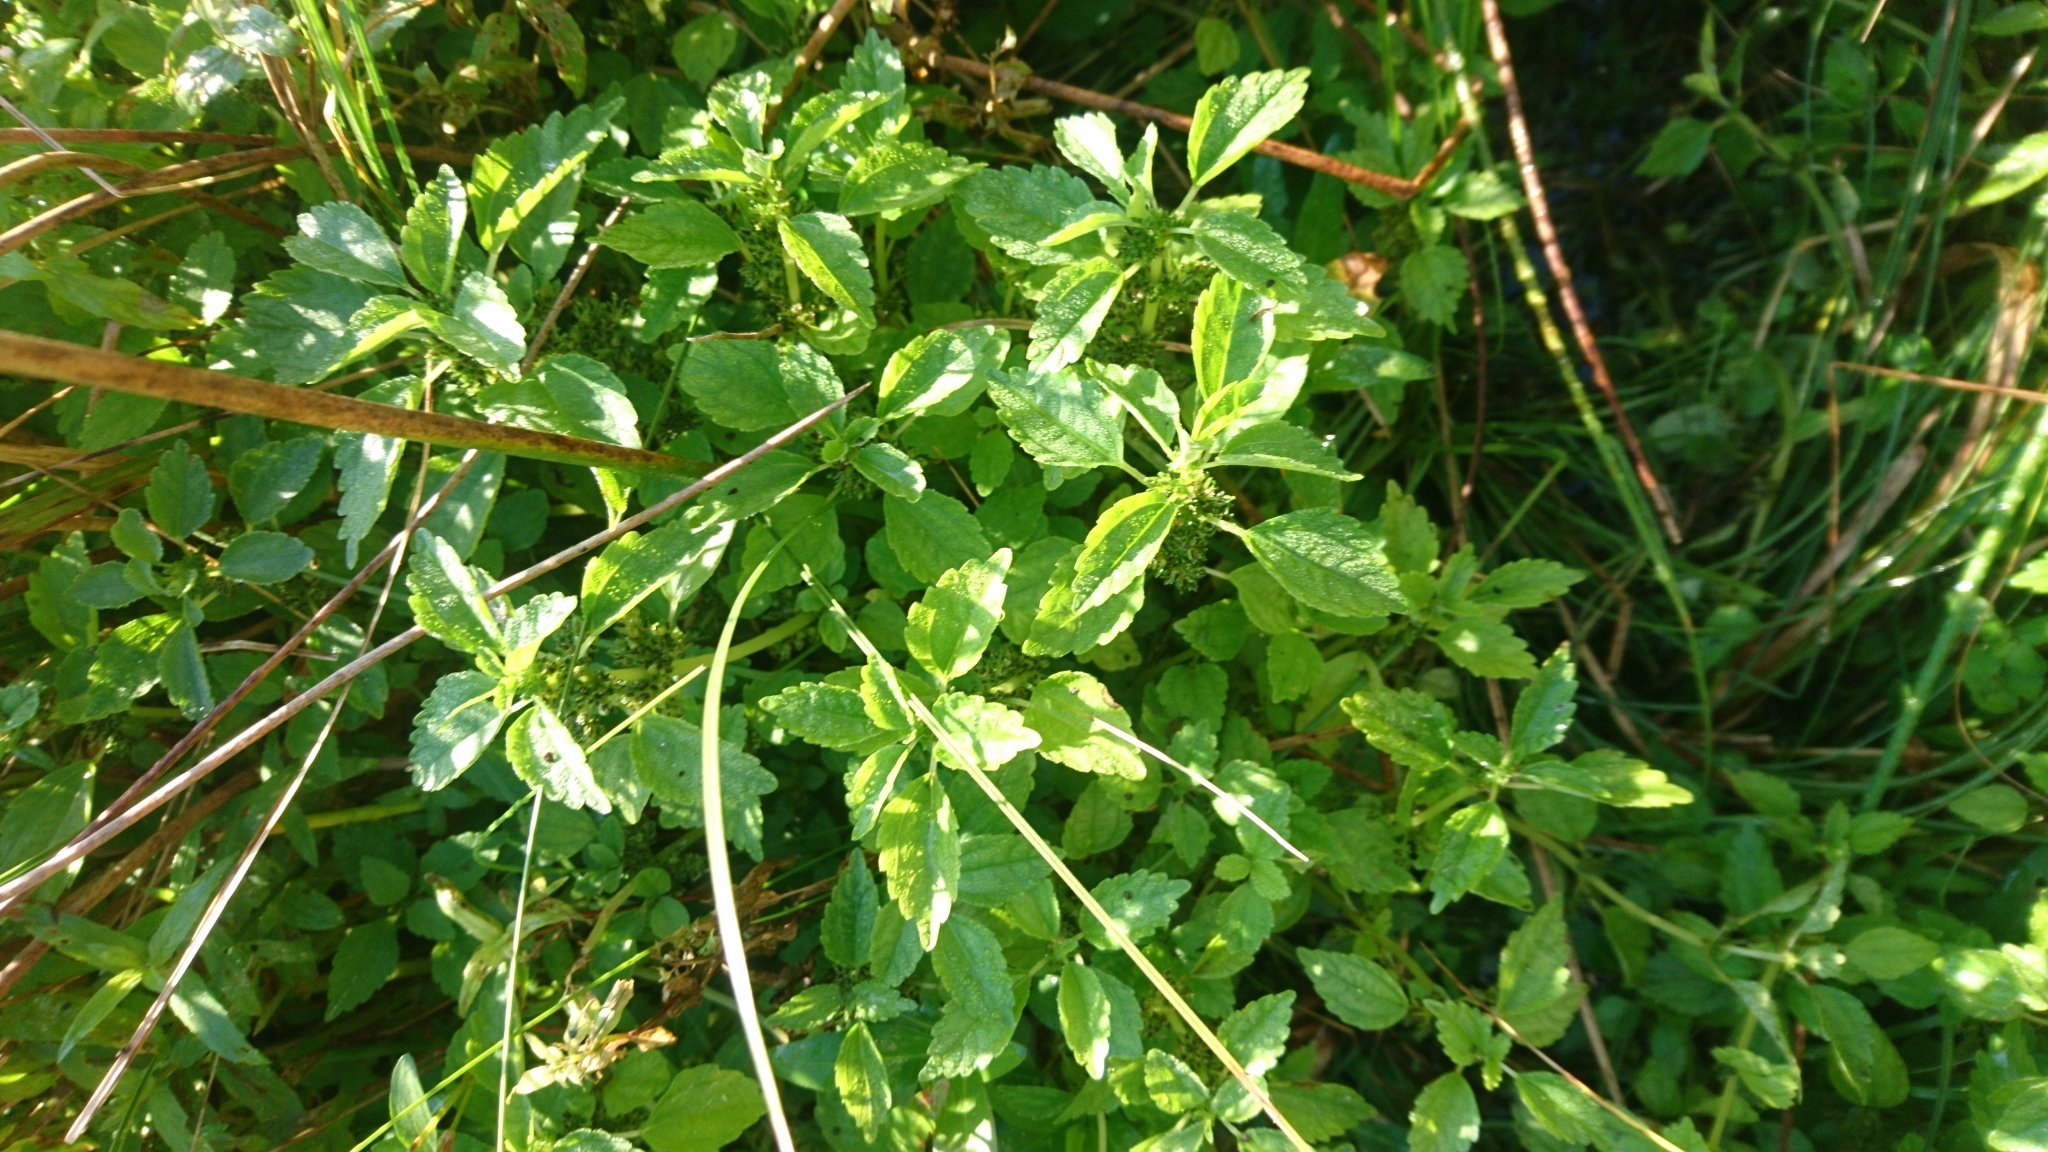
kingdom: Plantae
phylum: Tracheophyta
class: Magnoliopsida
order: Rosales
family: Urticaceae
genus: Pilea
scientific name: Pilea pumila
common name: Clearweed
